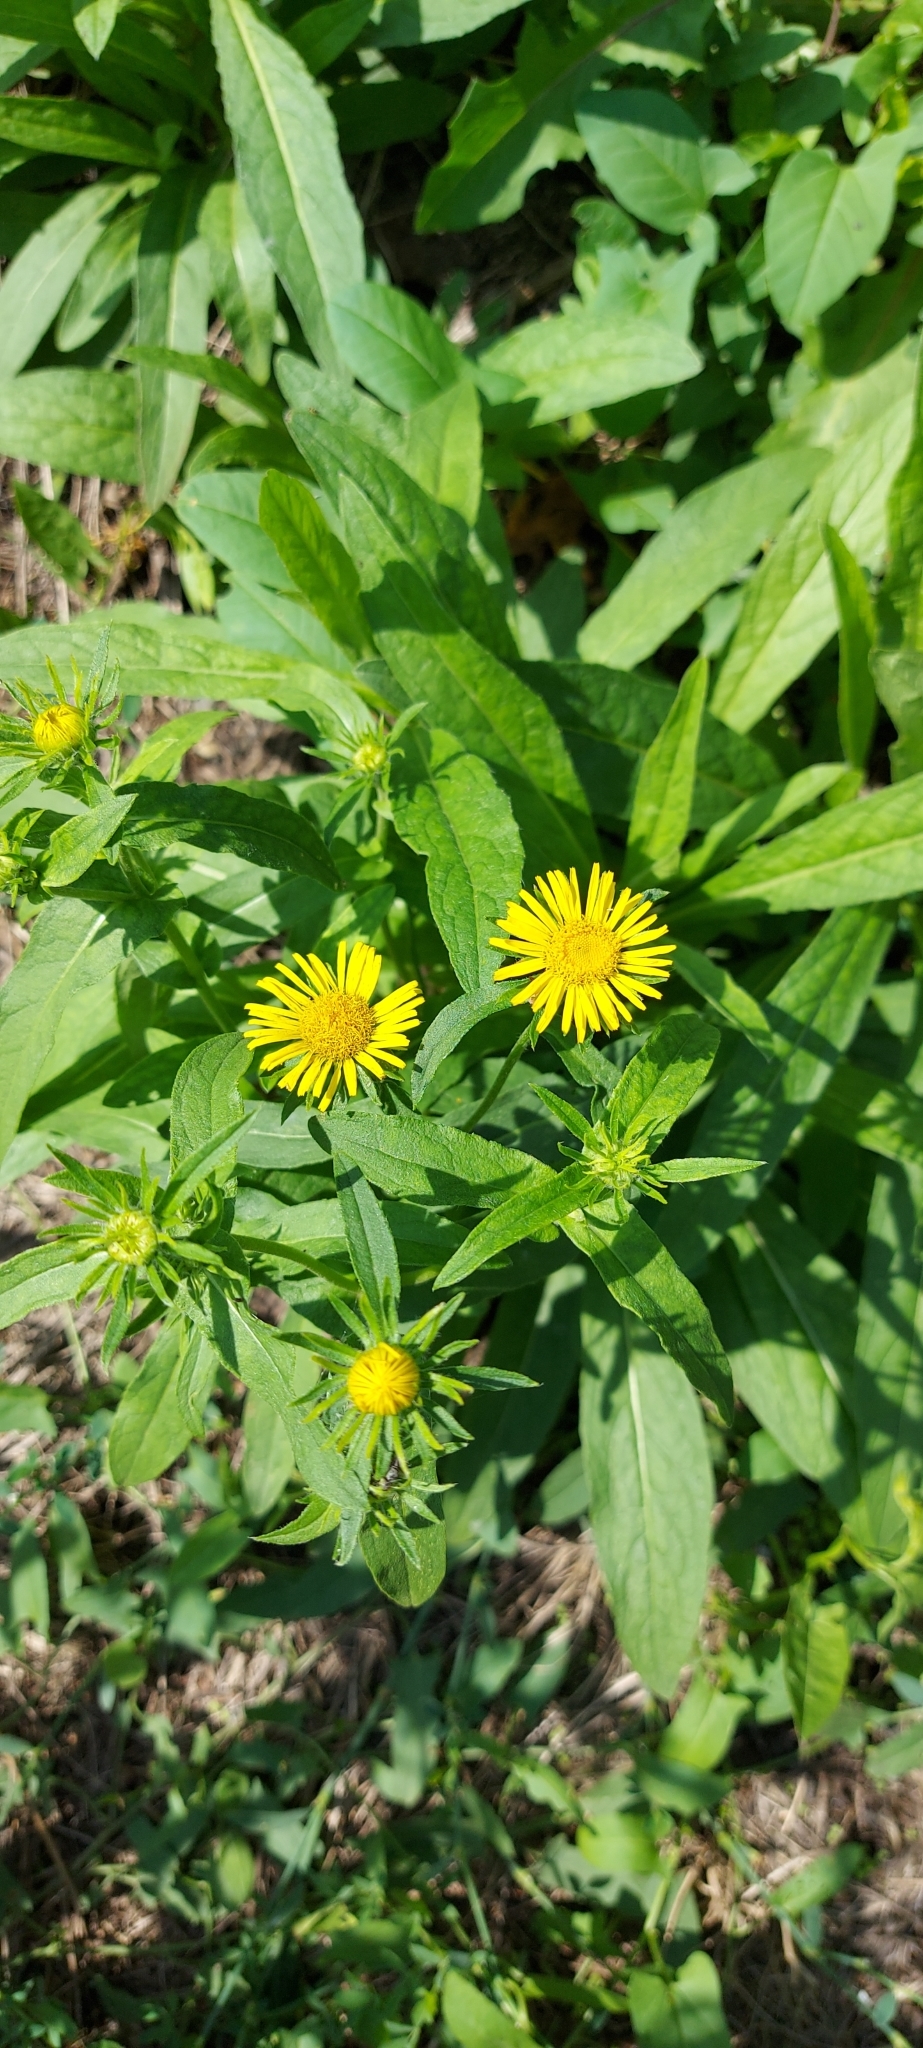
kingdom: Plantae
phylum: Tracheophyta
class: Magnoliopsida
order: Asterales
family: Asteraceae
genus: Pentanema
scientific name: Pentanema britannicum
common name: British elecampane
